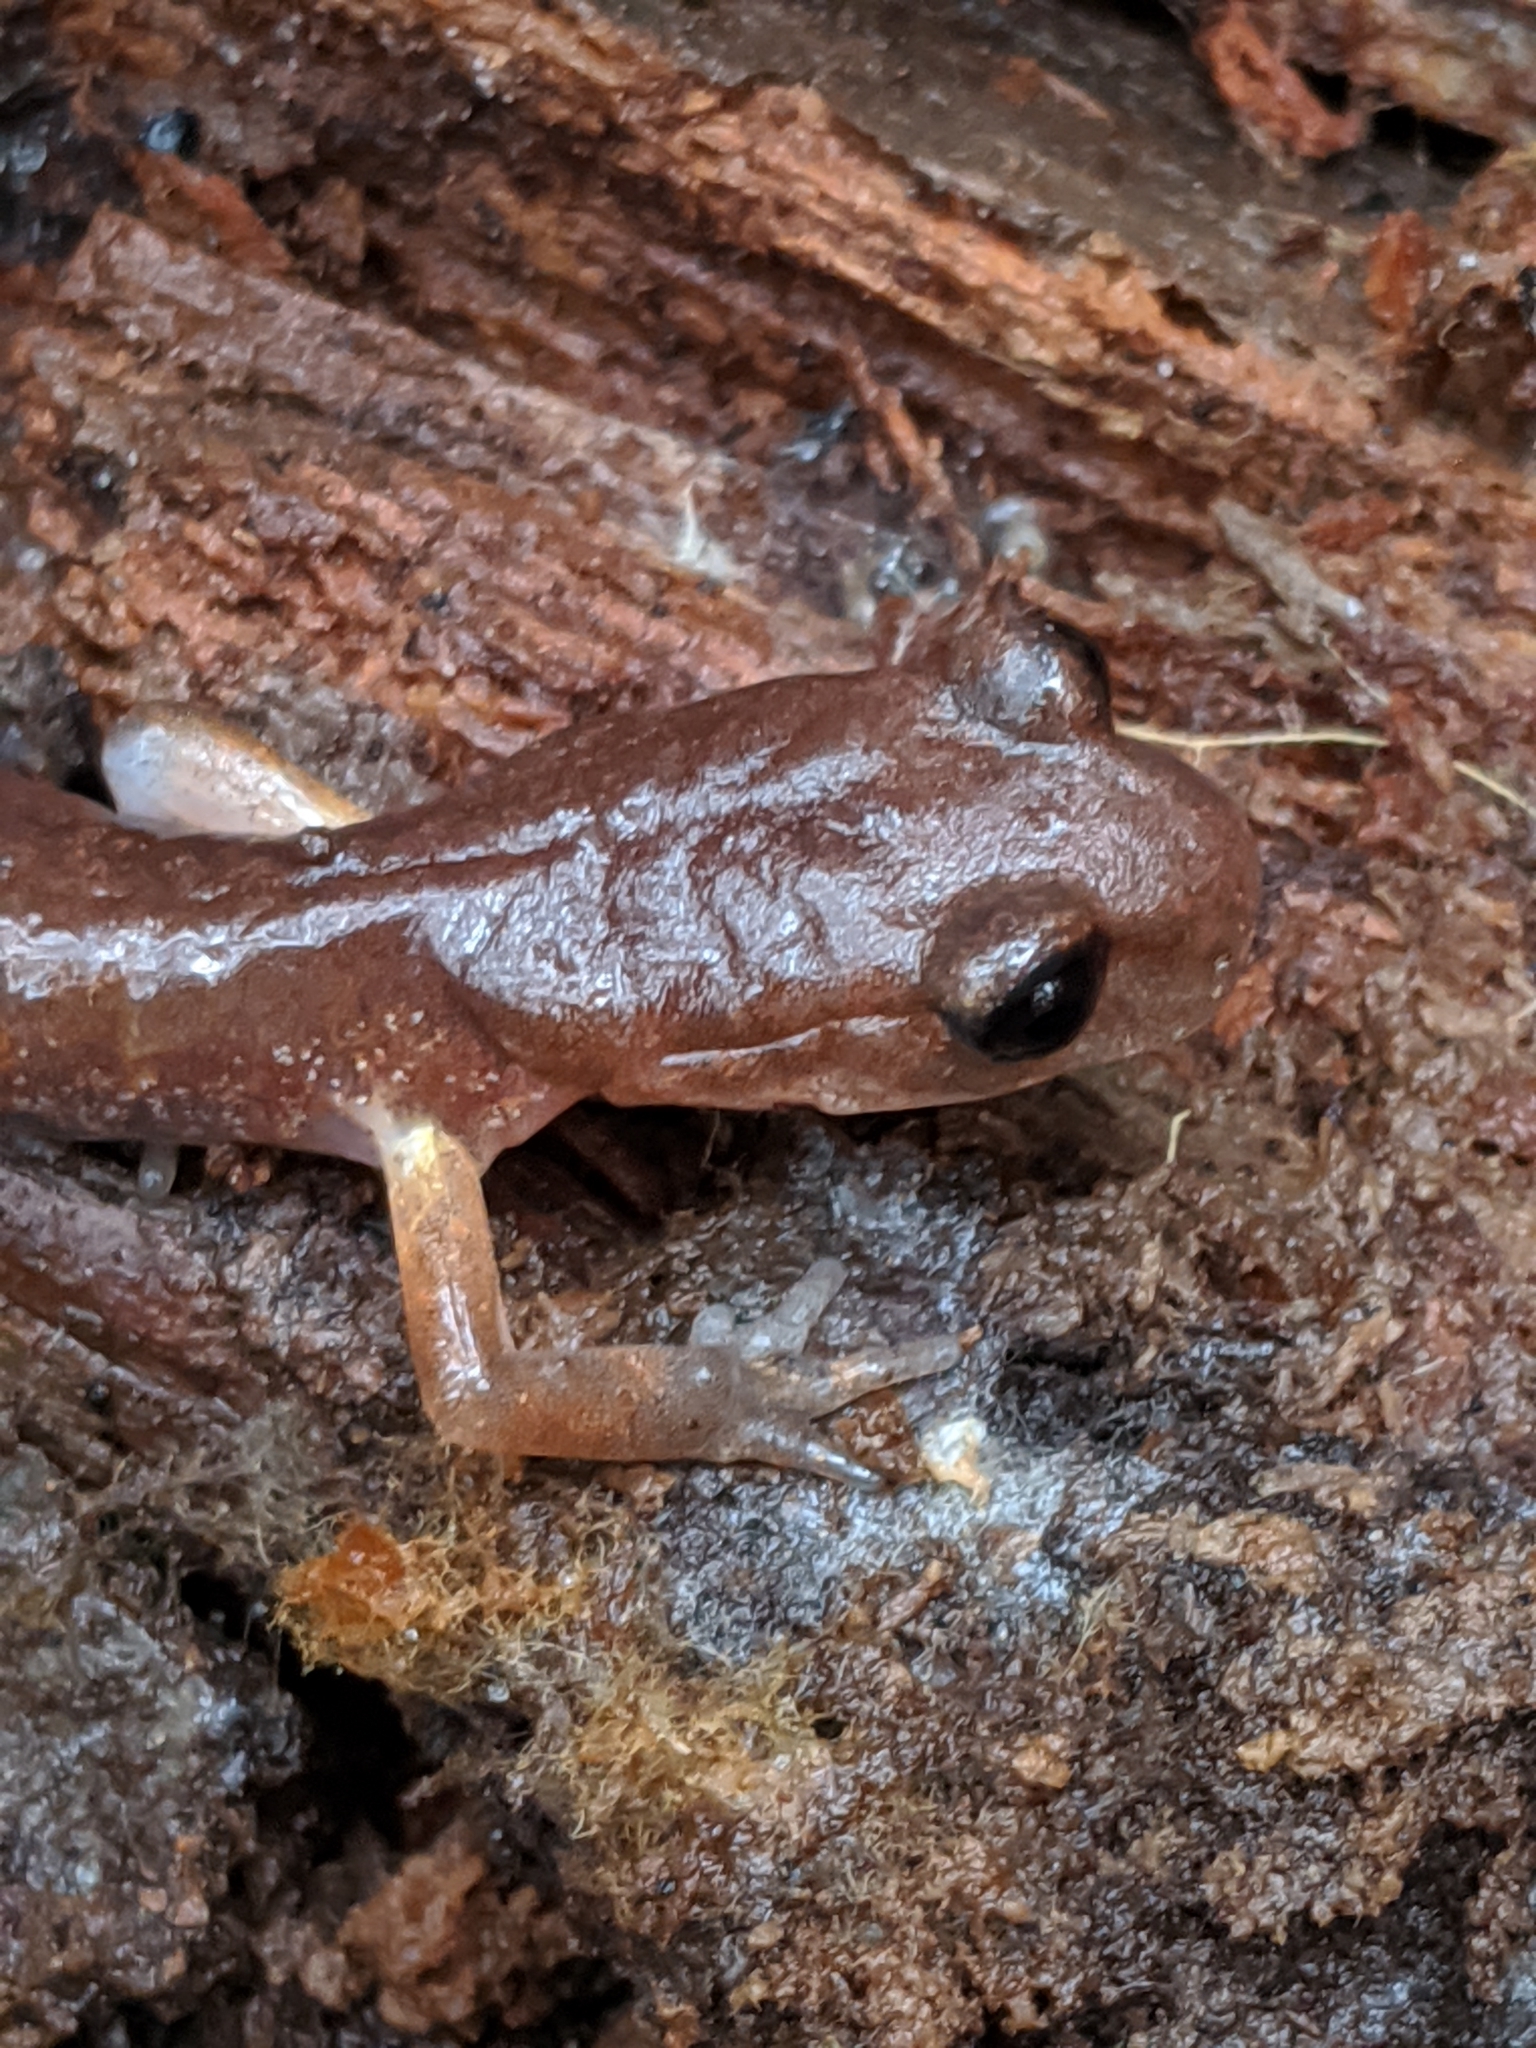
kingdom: Animalia
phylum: Chordata
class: Amphibia
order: Caudata
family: Plethodontidae
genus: Ensatina
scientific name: Ensatina eschscholtzii
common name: Ensatina
